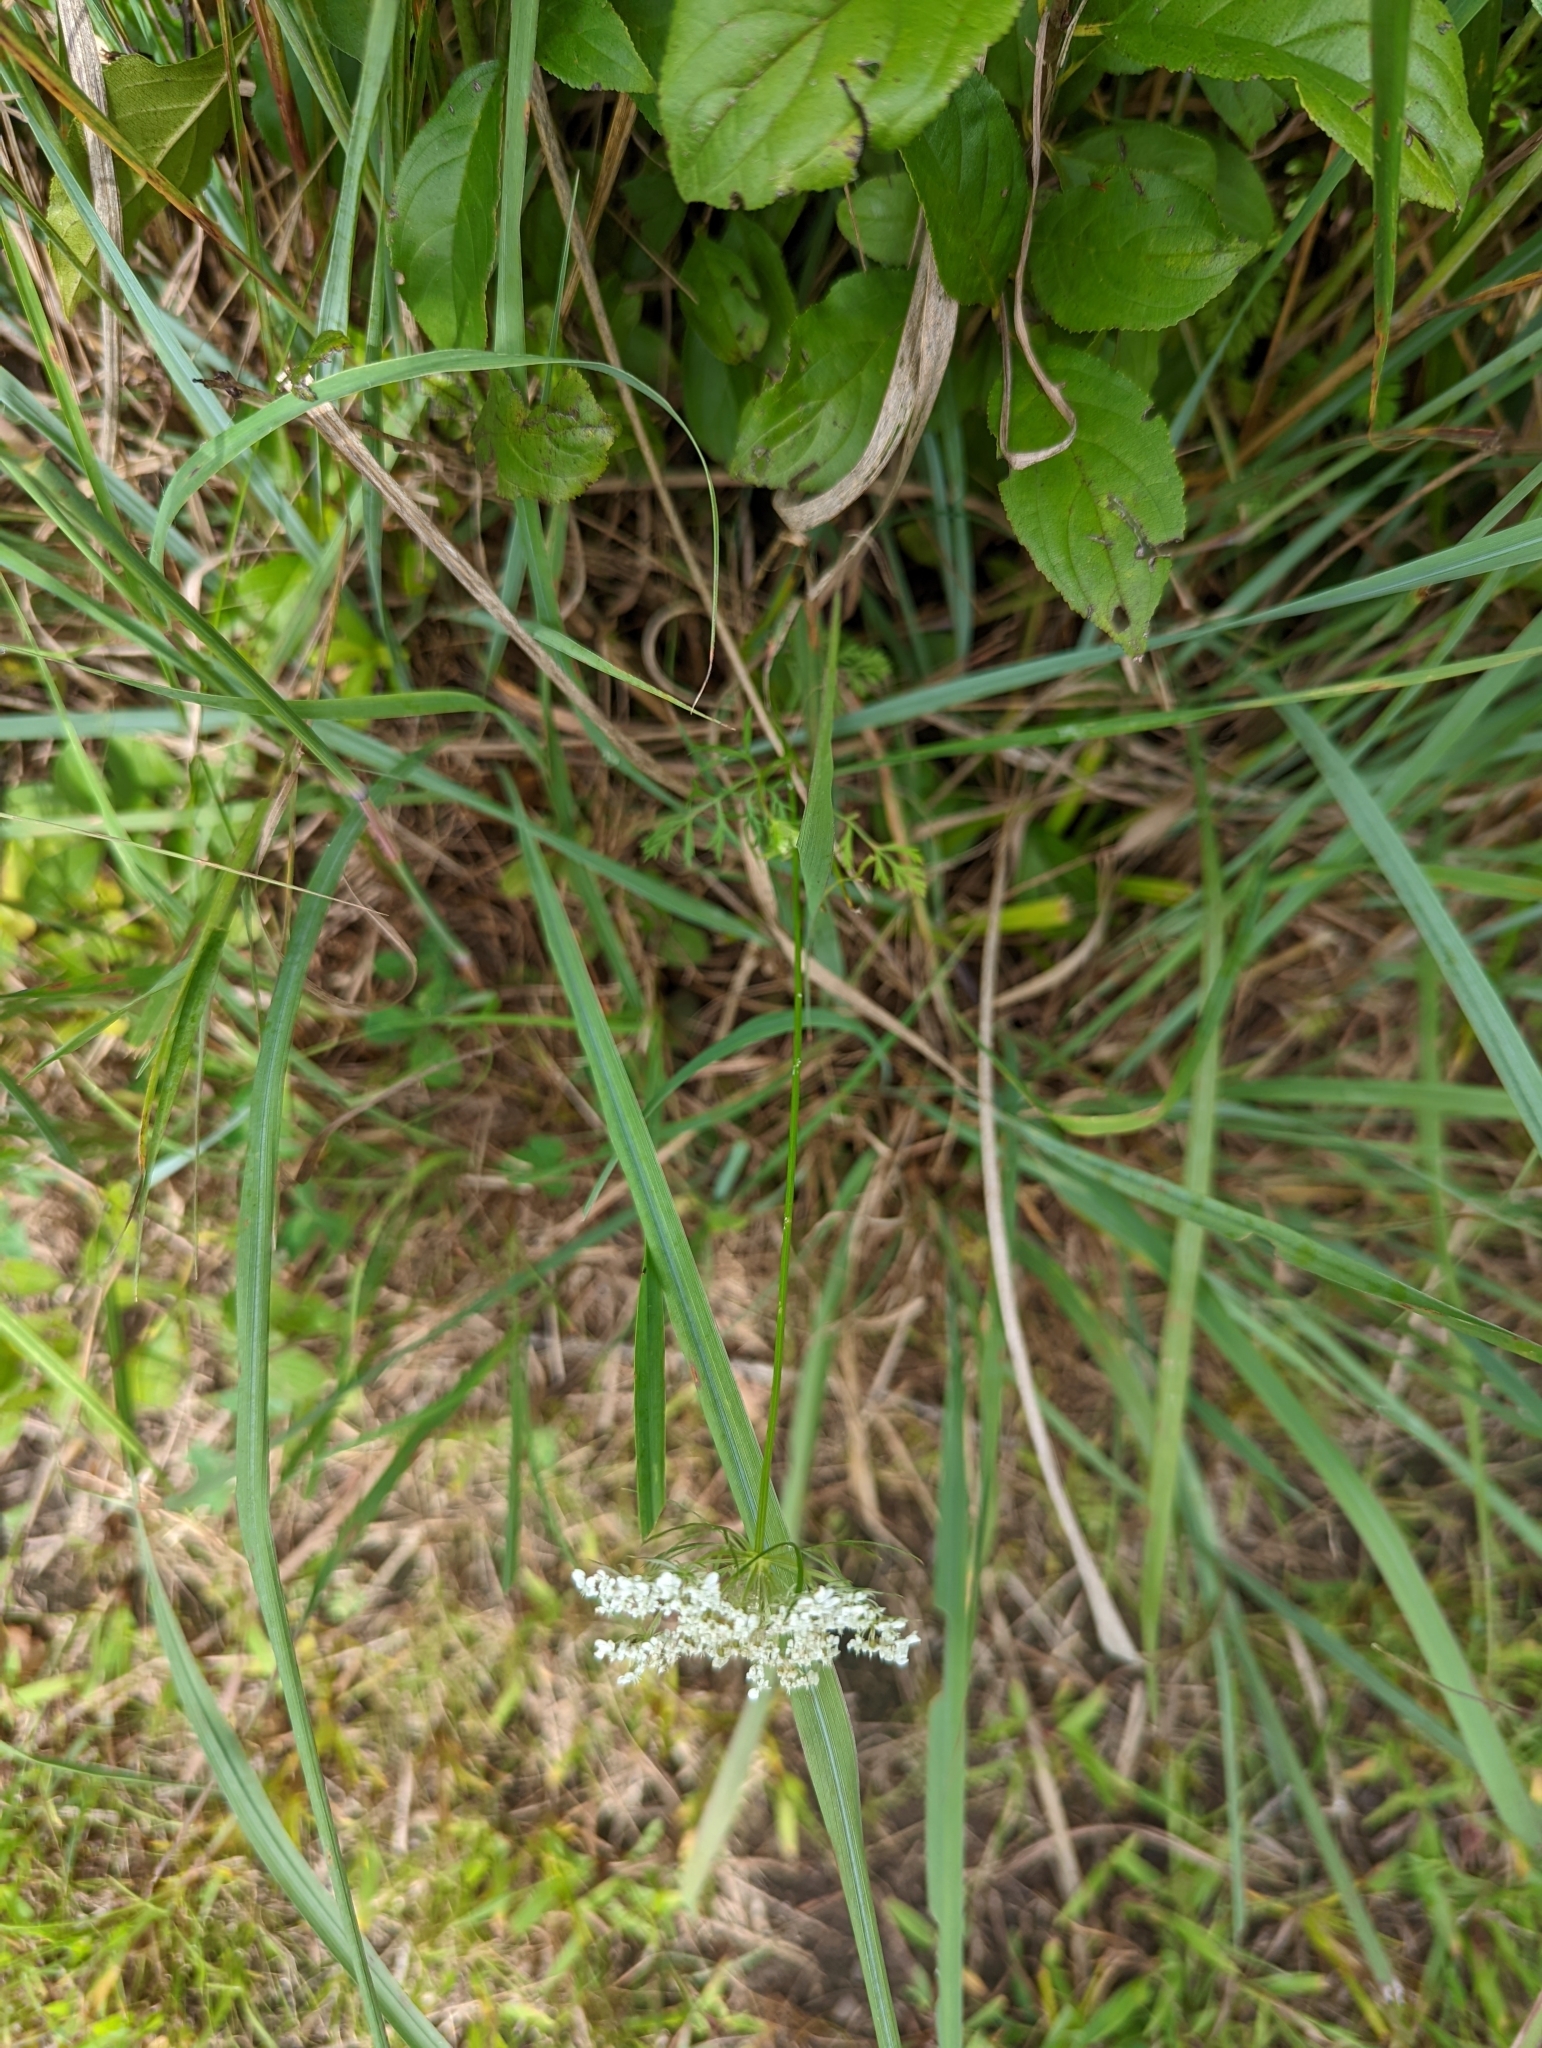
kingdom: Plantae
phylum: Tracheophyta
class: Magnoliopsida
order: Apiales
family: Apiaceae
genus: Daucus
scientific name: Daucus carota
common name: Wild carrot
